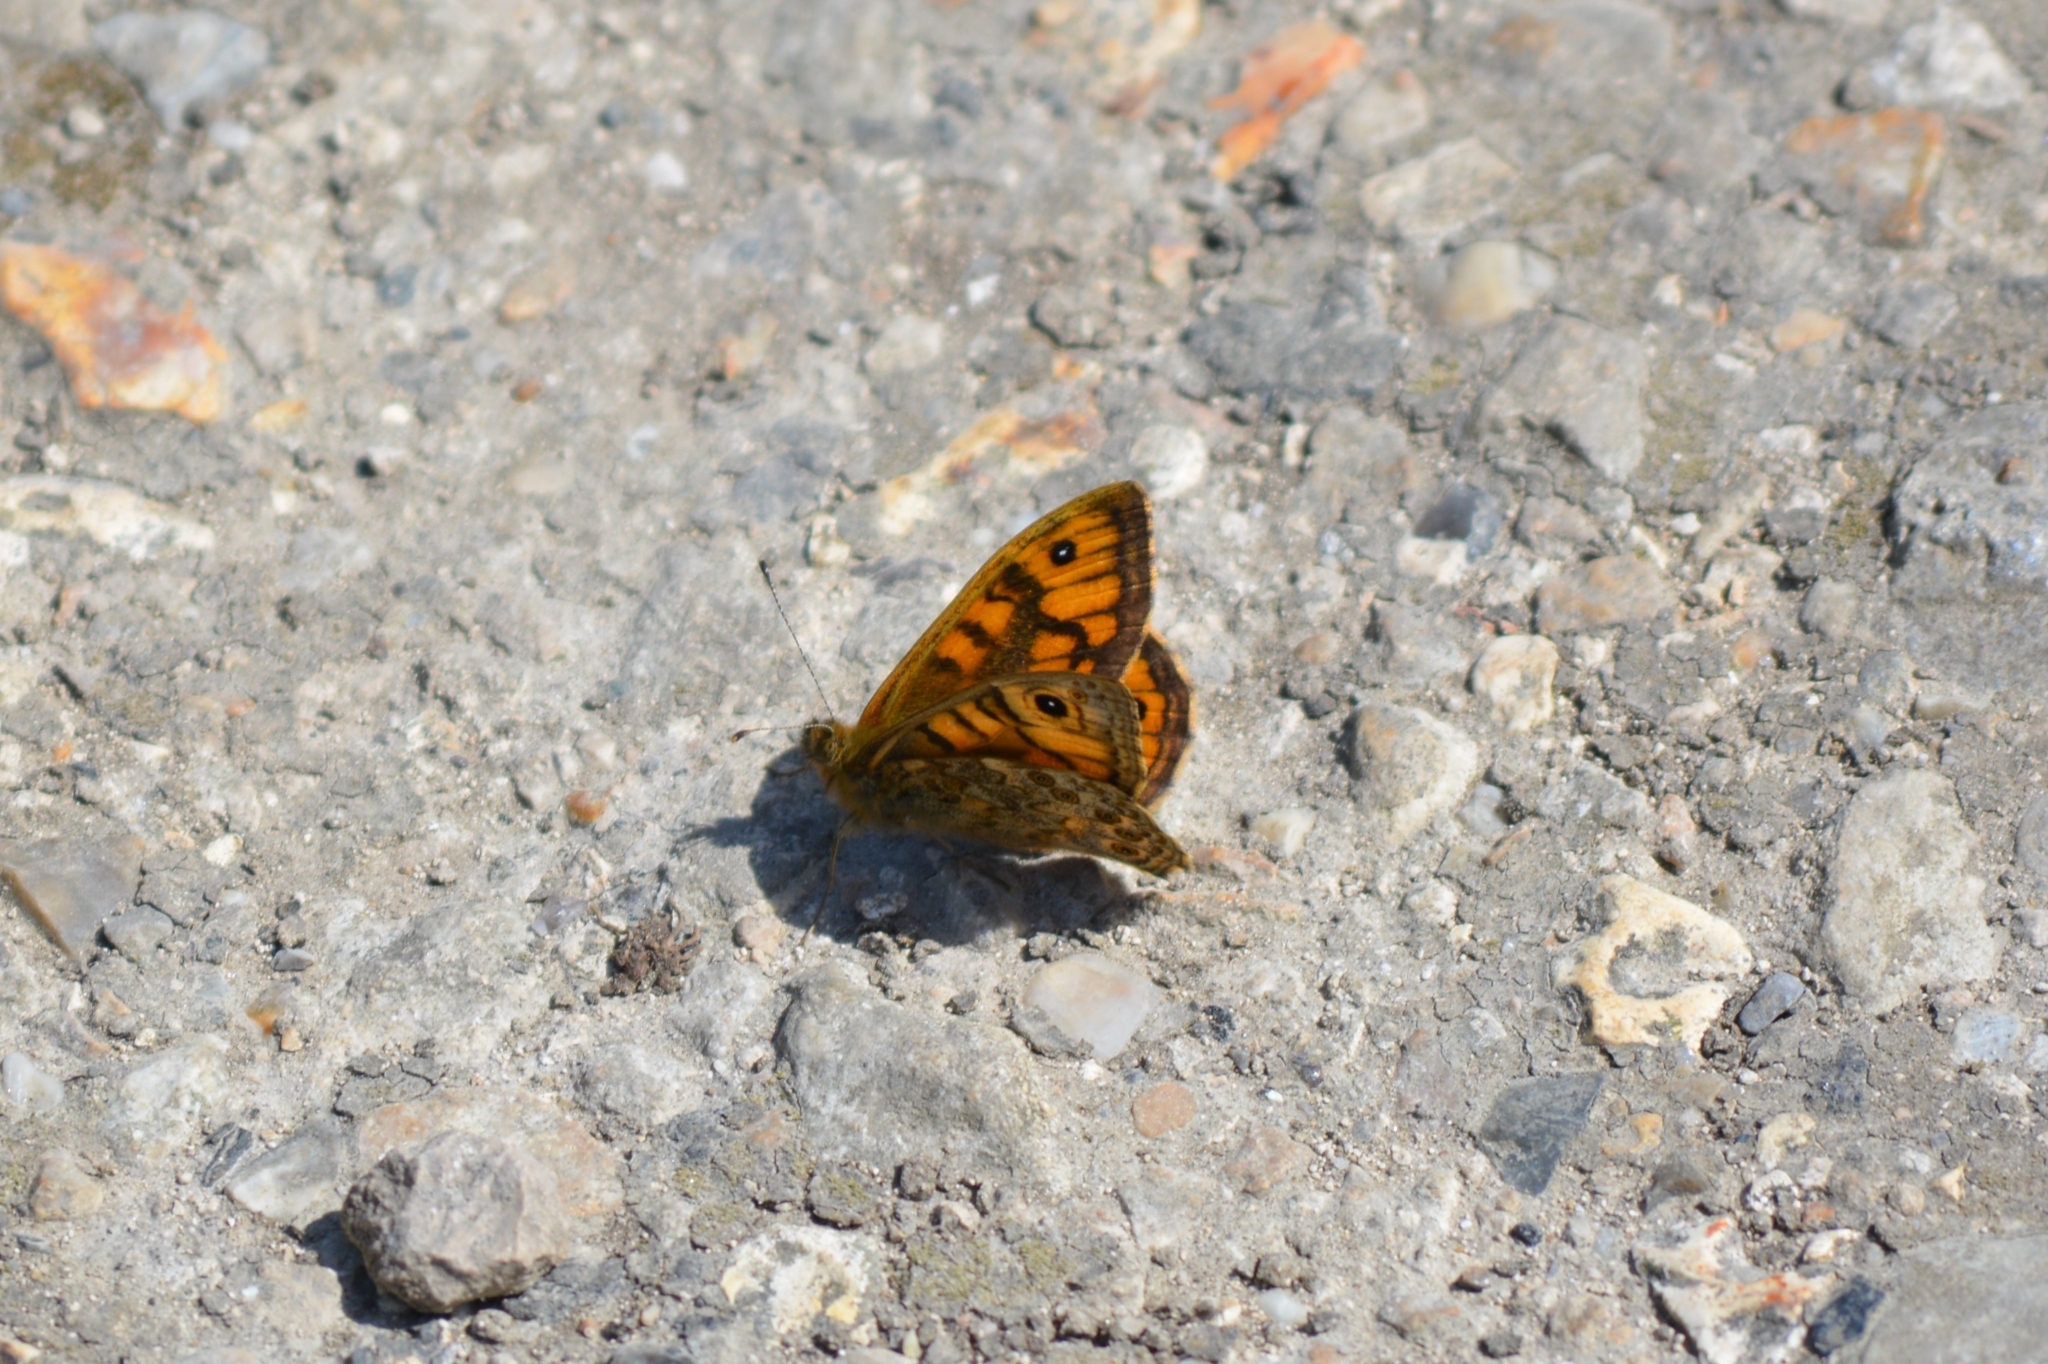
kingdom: Animalia
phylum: Arthropoda
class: Insecta
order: Lepidoptera
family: Nymphalidae
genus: Pararge
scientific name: Pararge Lasiommata megera
